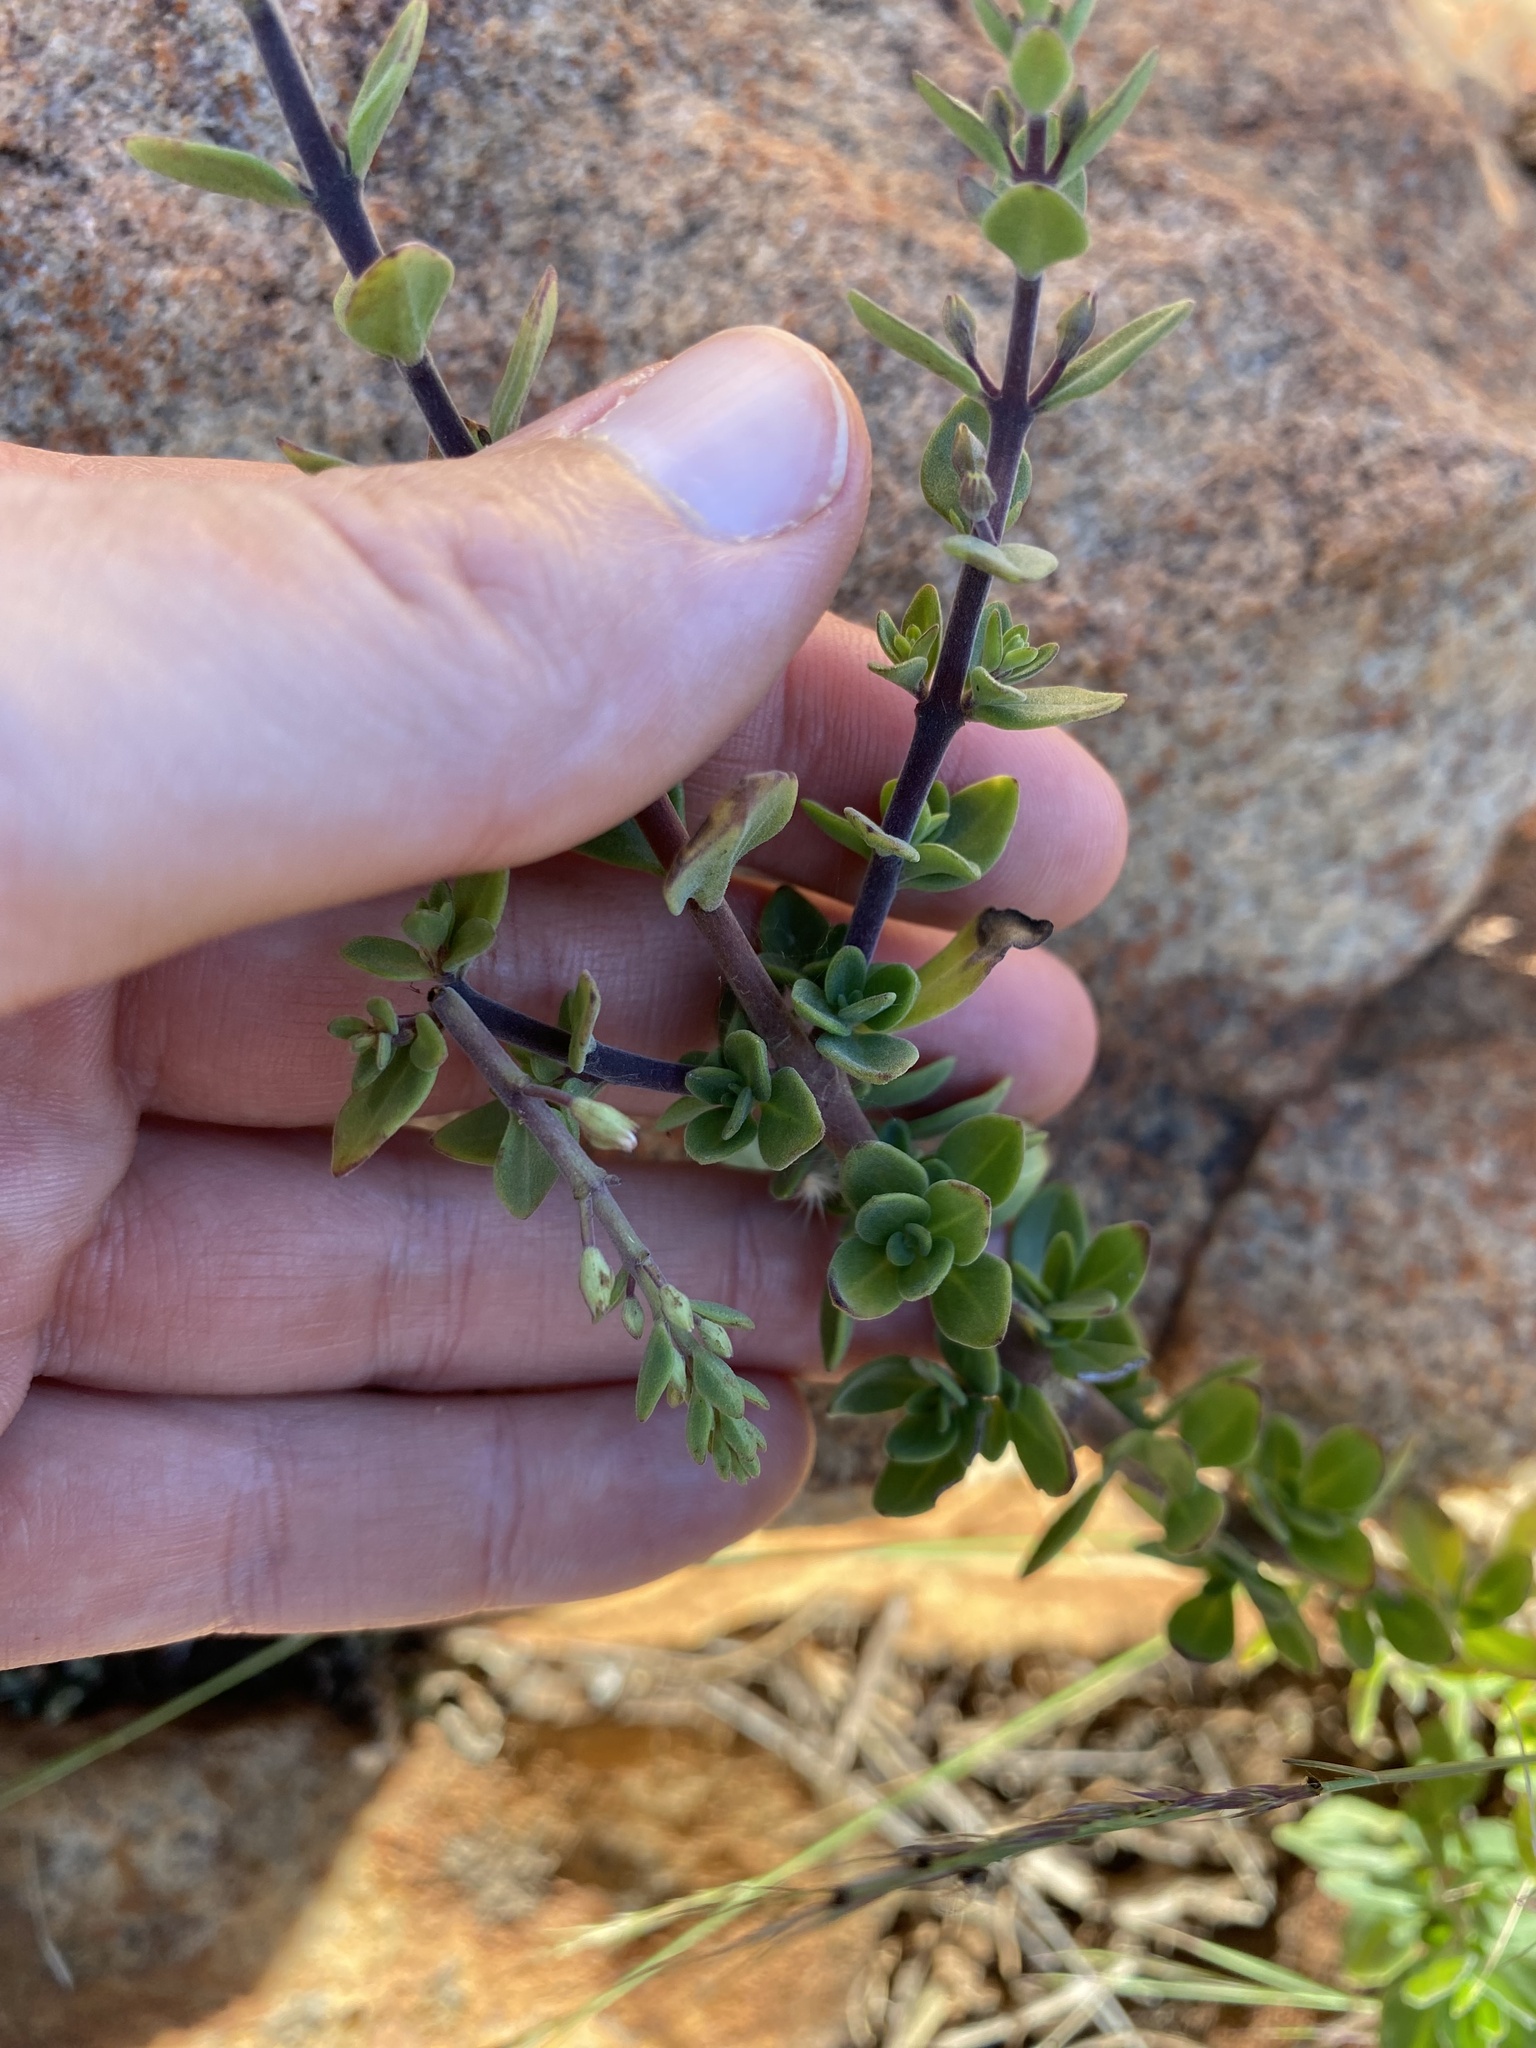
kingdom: Plantae
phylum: Tracheophyta
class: Magnoliopsida
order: Lamiales
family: Lamiaceae
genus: Thorncroftia
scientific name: Thorncroftia greenii
